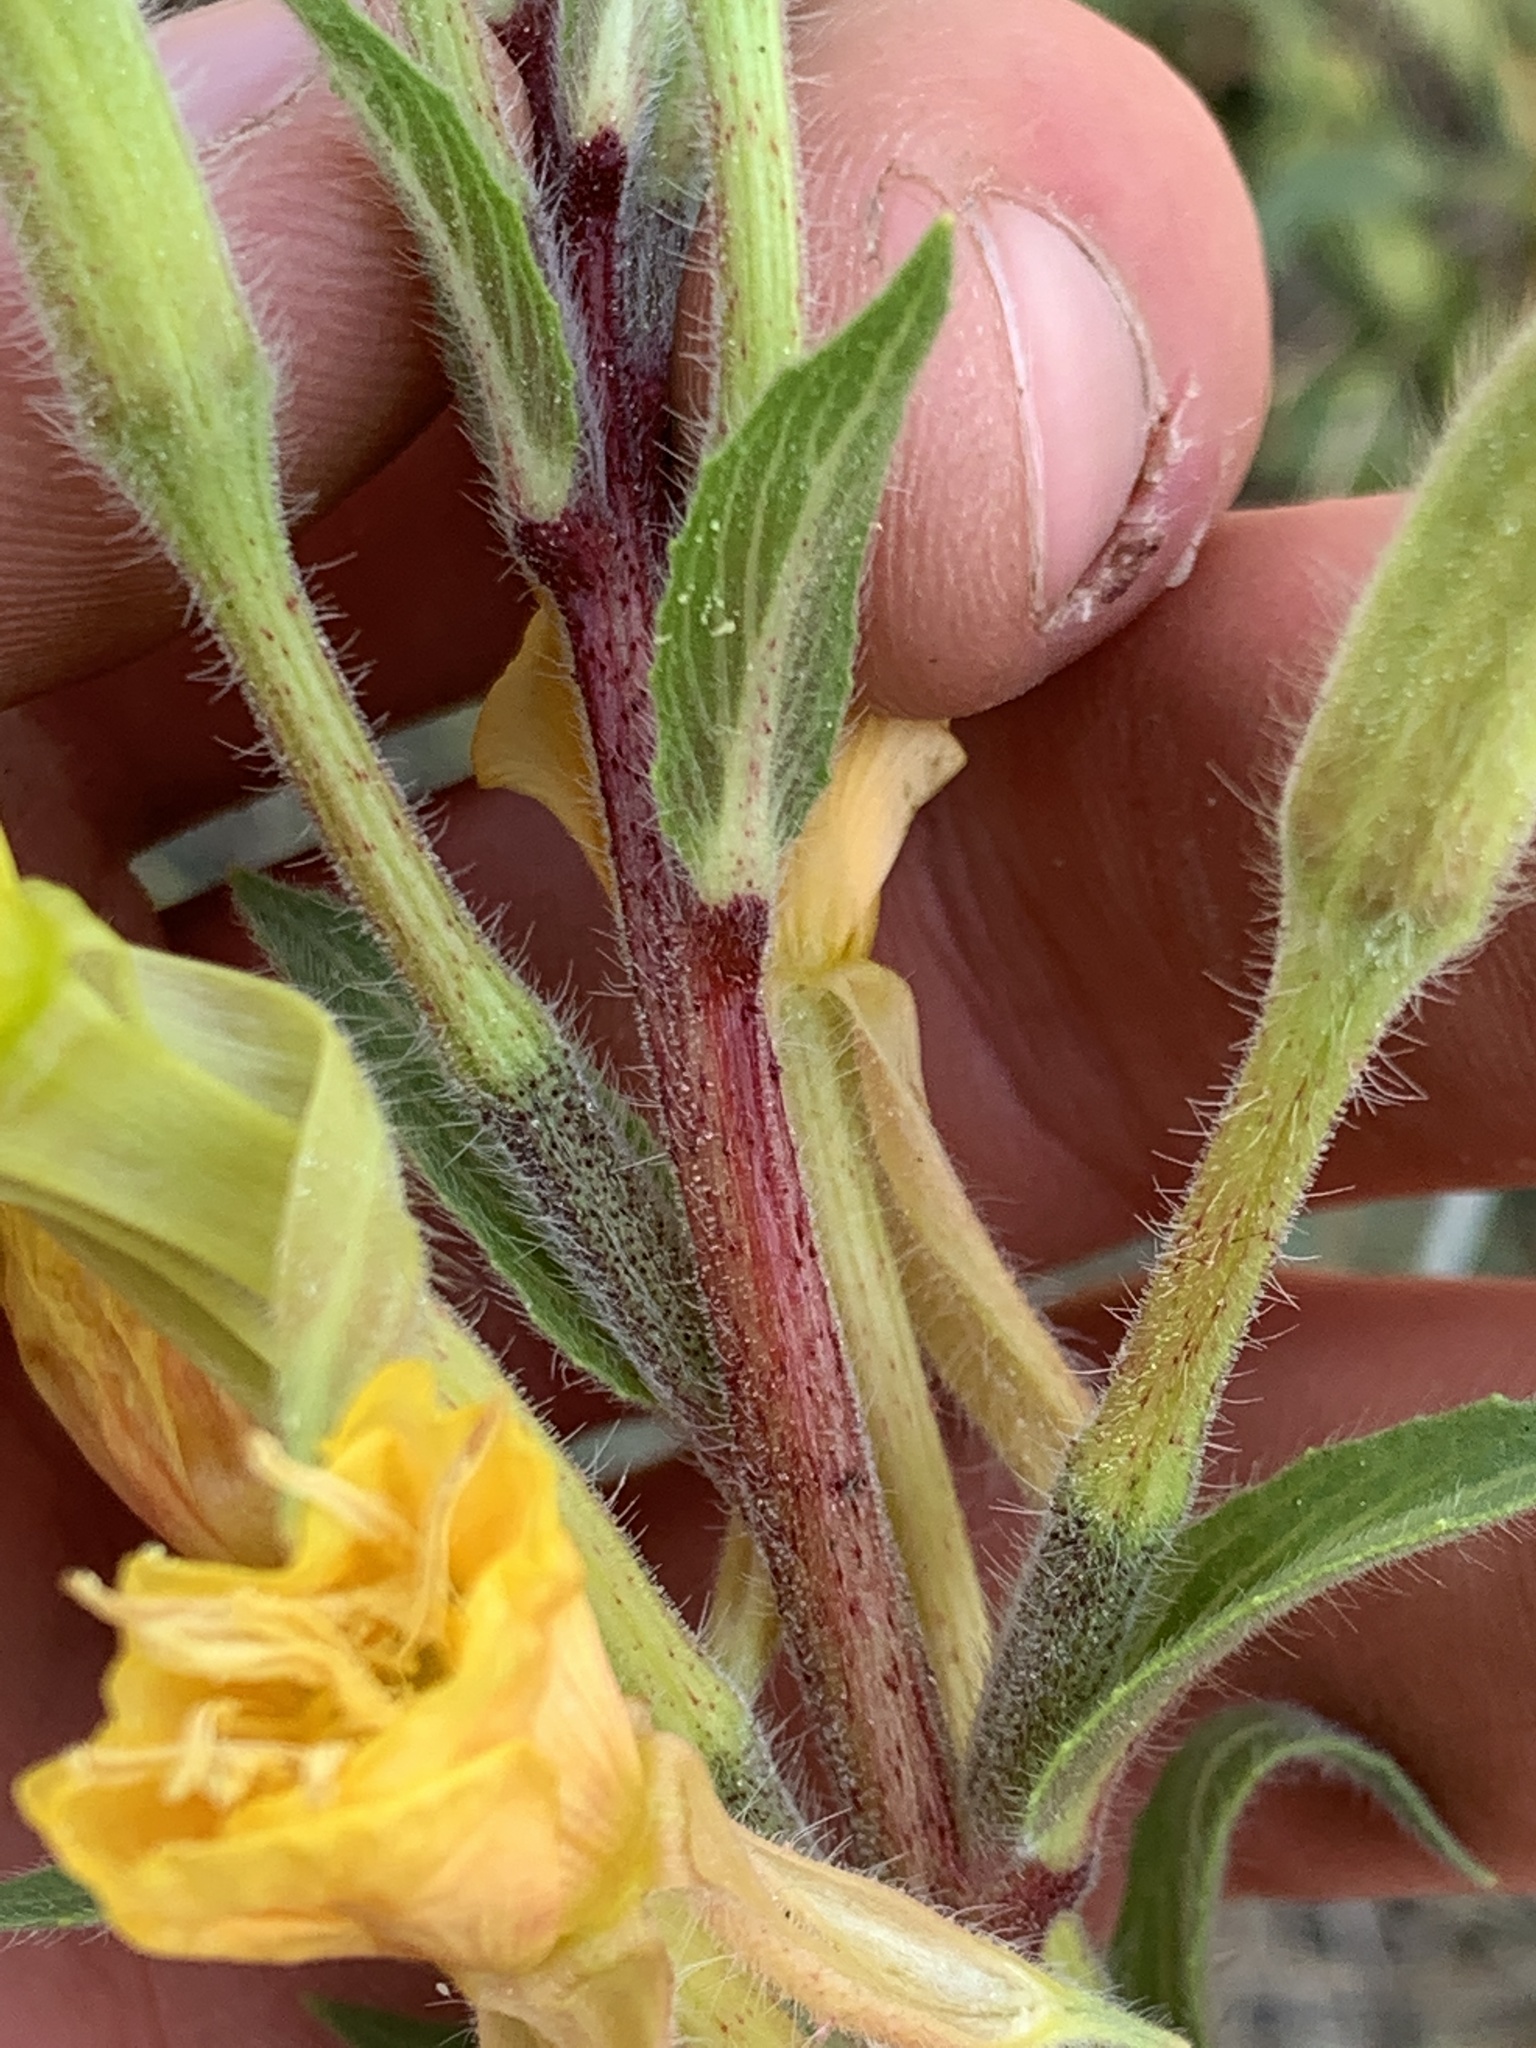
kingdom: Plantae
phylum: Tracheophyta
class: Magnoliopsida
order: Myrtales
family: Onagraceae
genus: Oenothera
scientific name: Oenothera villosa
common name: Hairy evening-primrose
